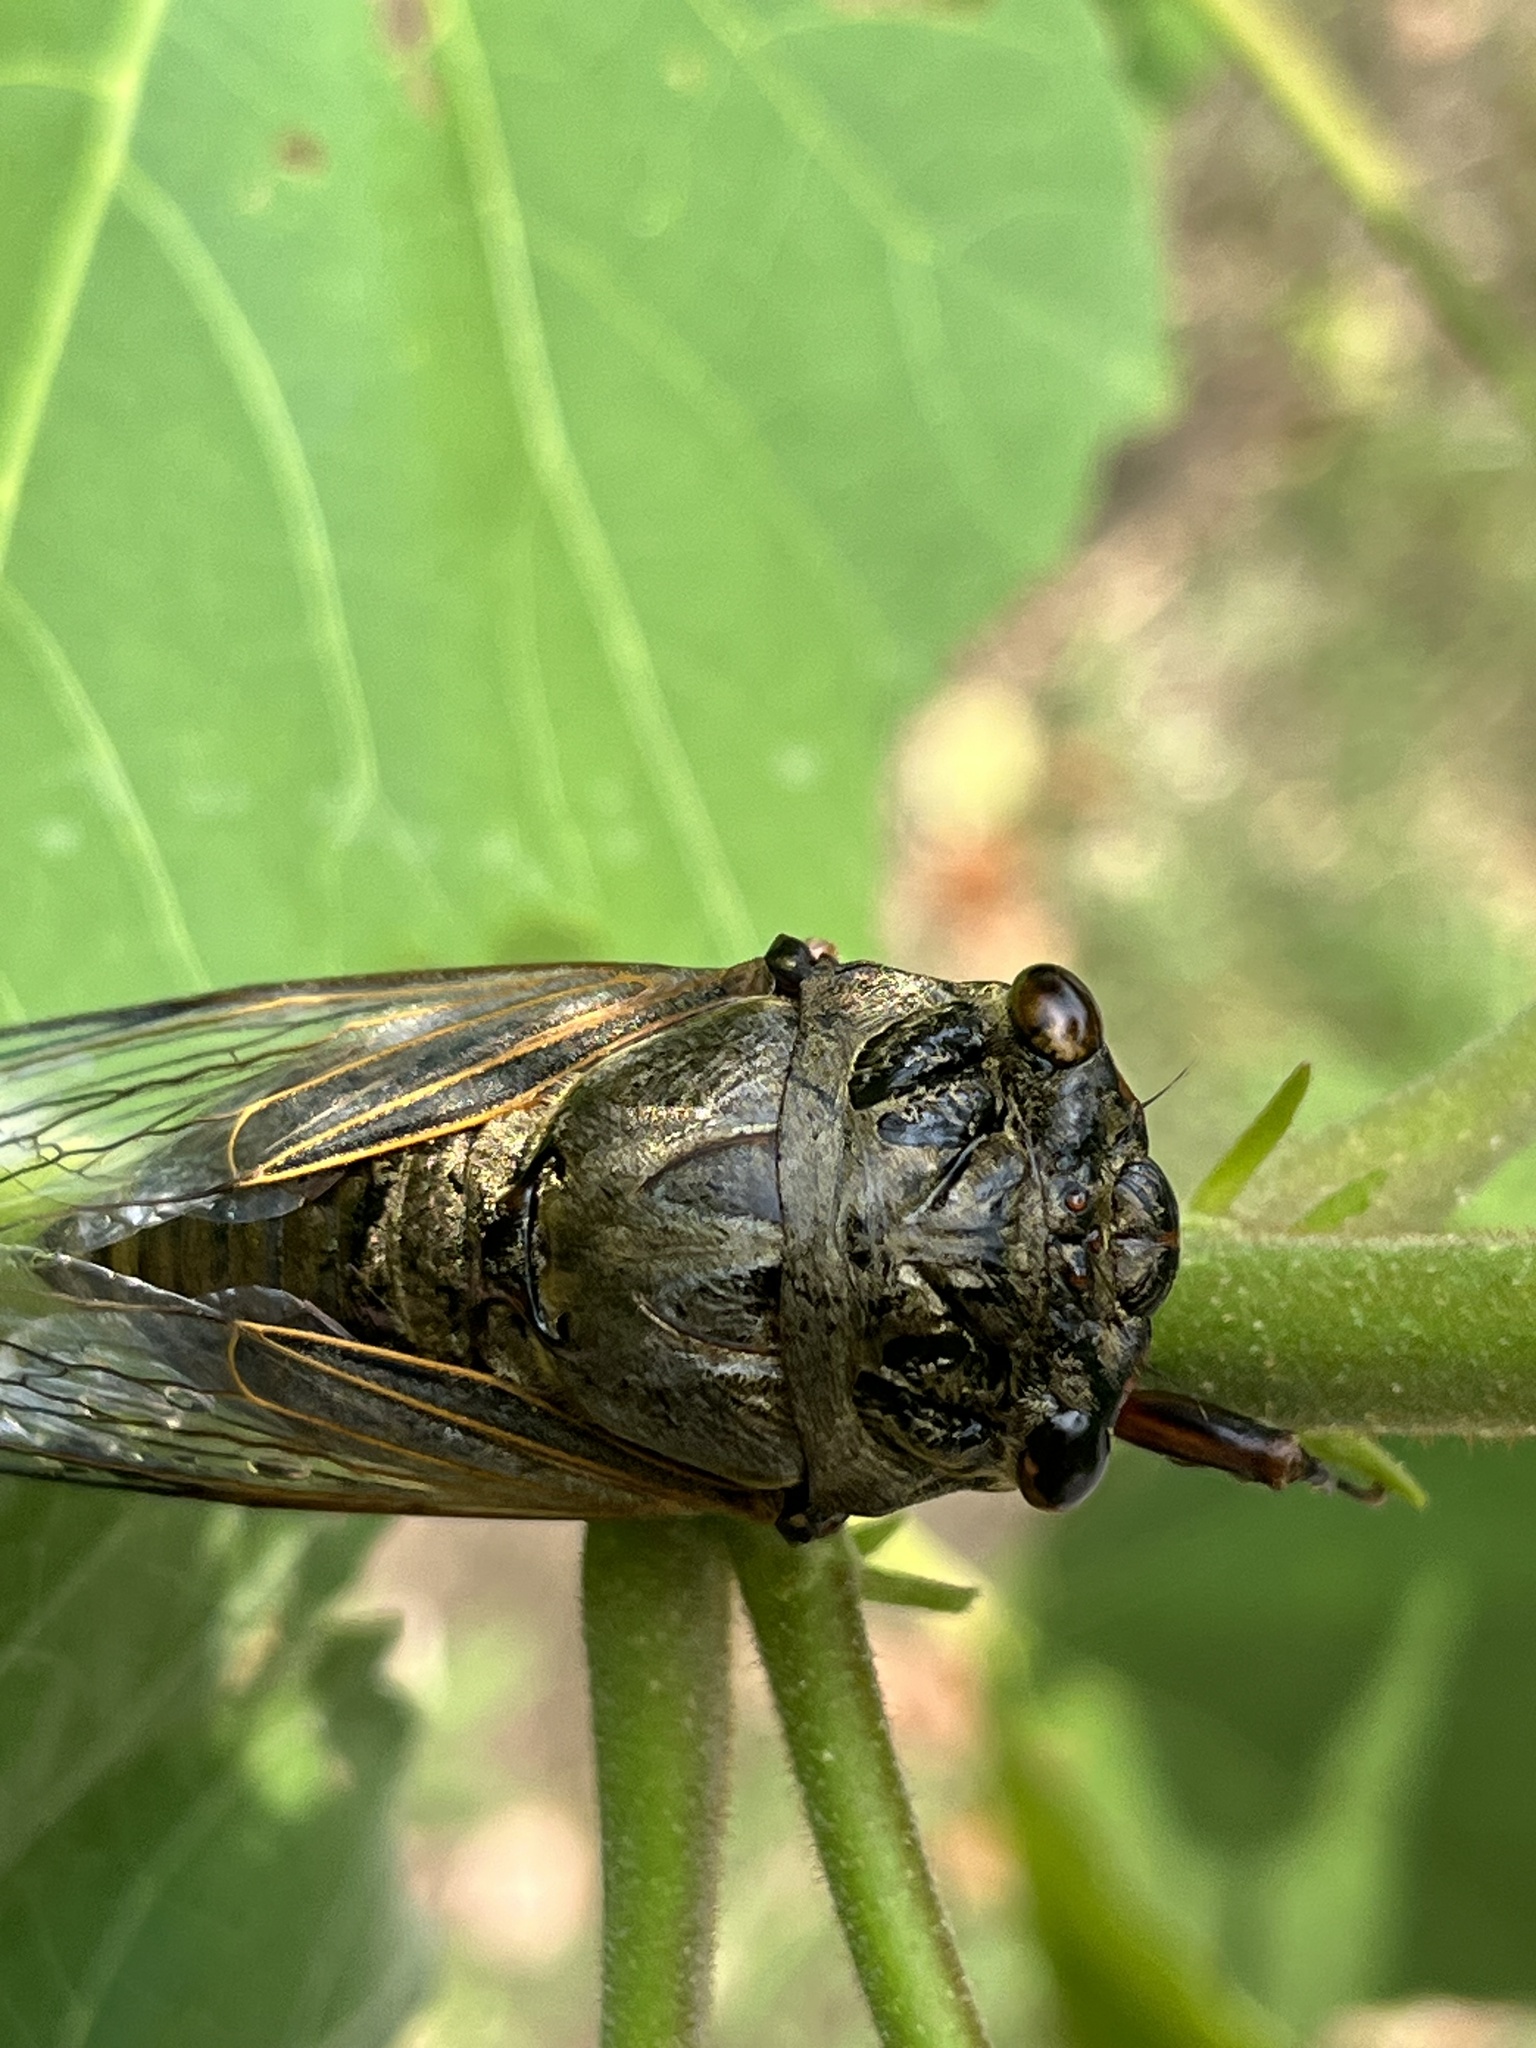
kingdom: Animalia
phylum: Arthropoda
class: Insecta
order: Hemiptera
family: Cicadidae
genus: Cryptotympana
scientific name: Cryptotympana atrata
